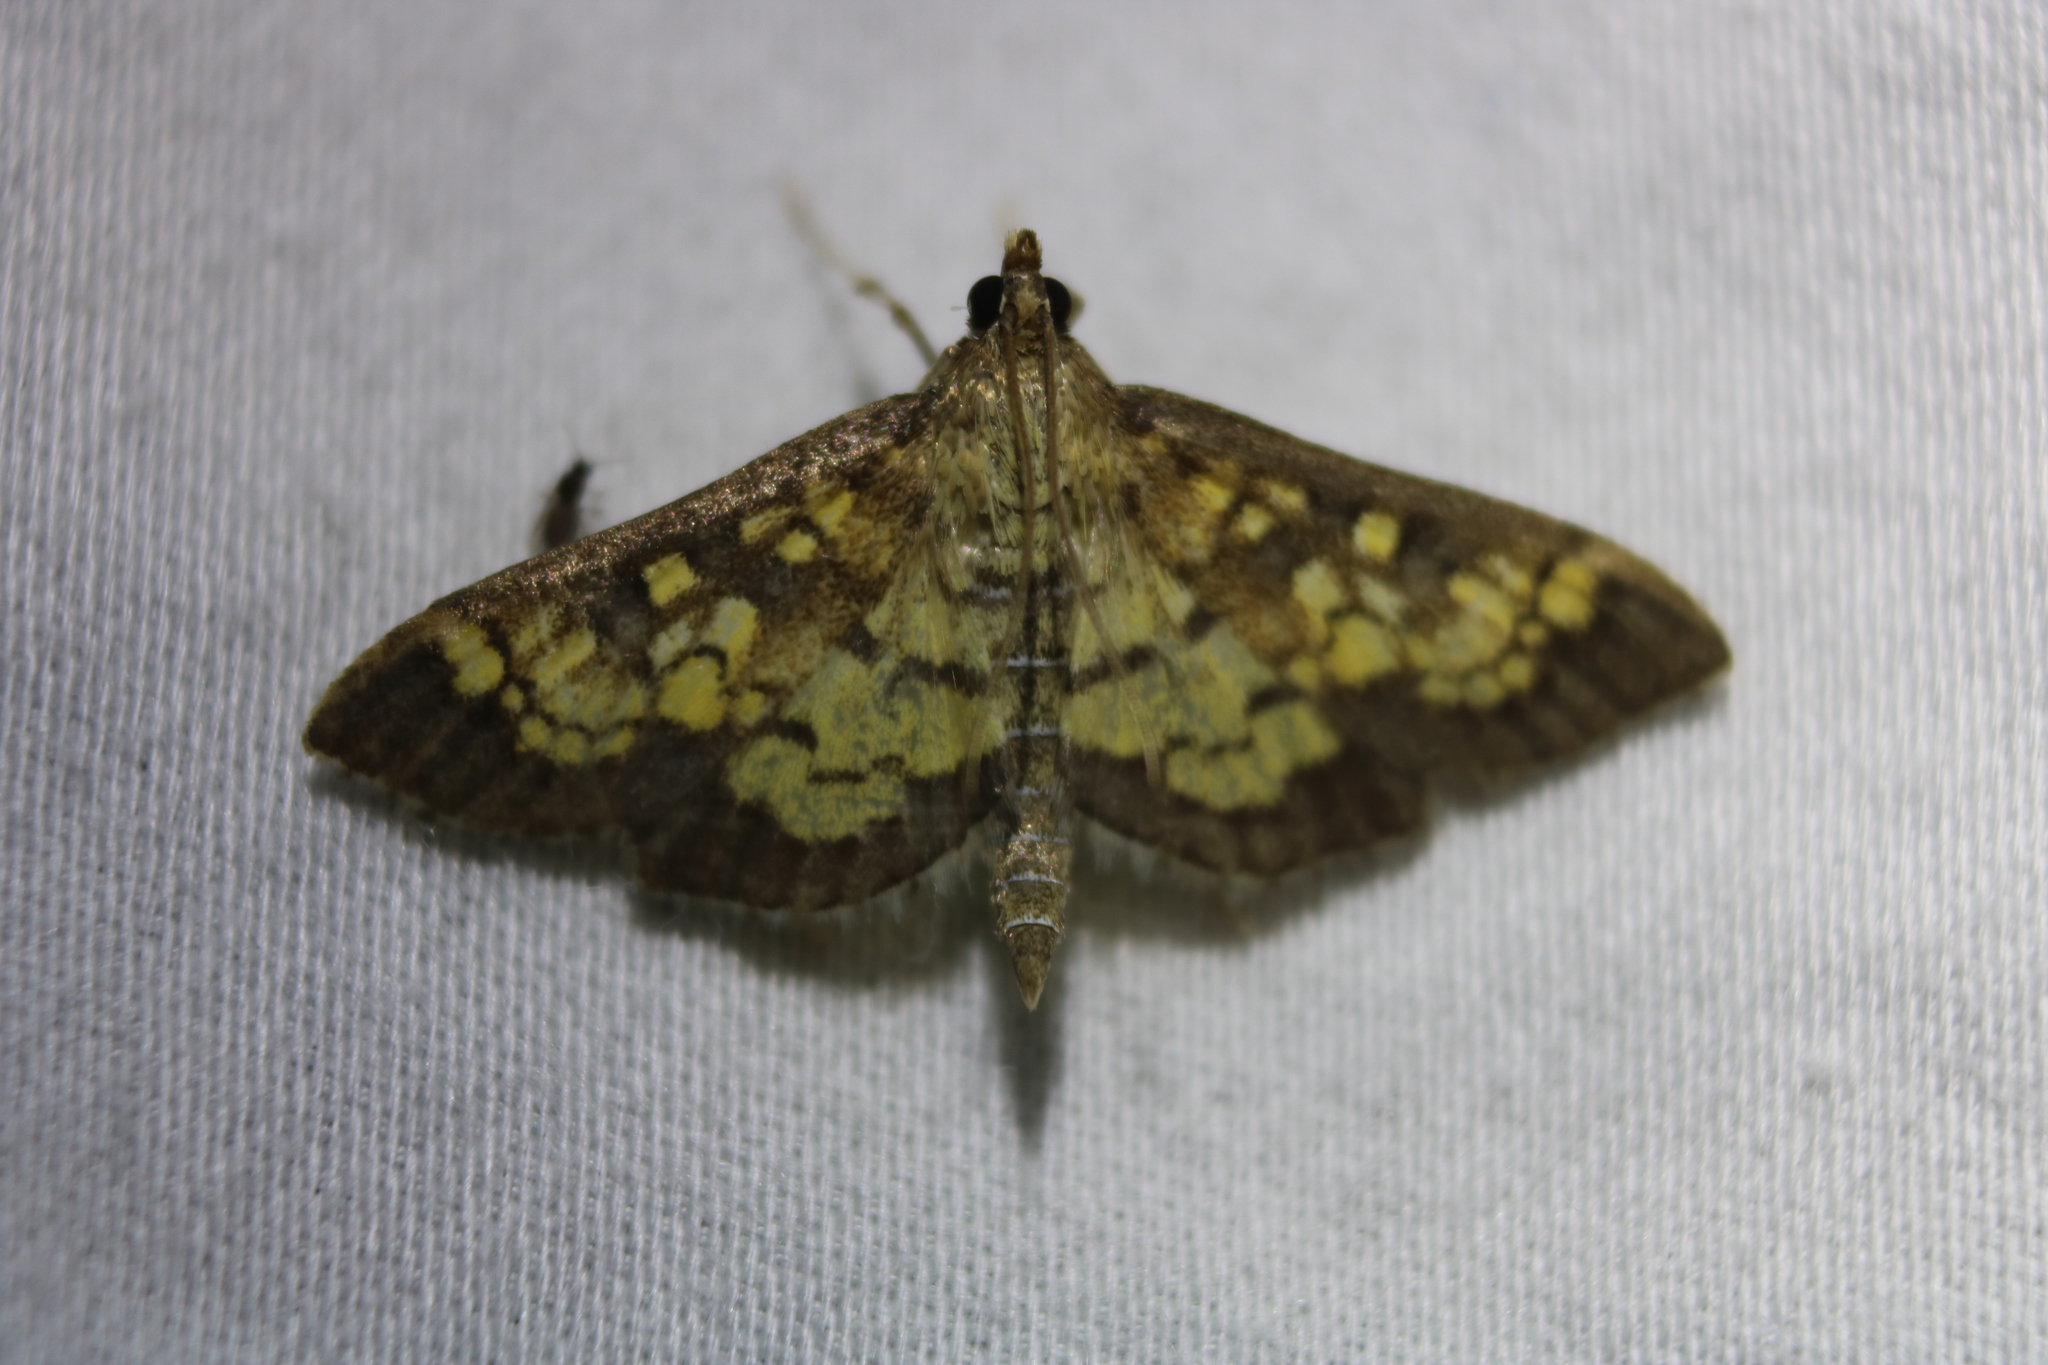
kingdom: Animalia
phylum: Arthropoda
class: Insecta
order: Lepidoptera
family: Crambidae
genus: Epipagis
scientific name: Epipagis adipaloides
